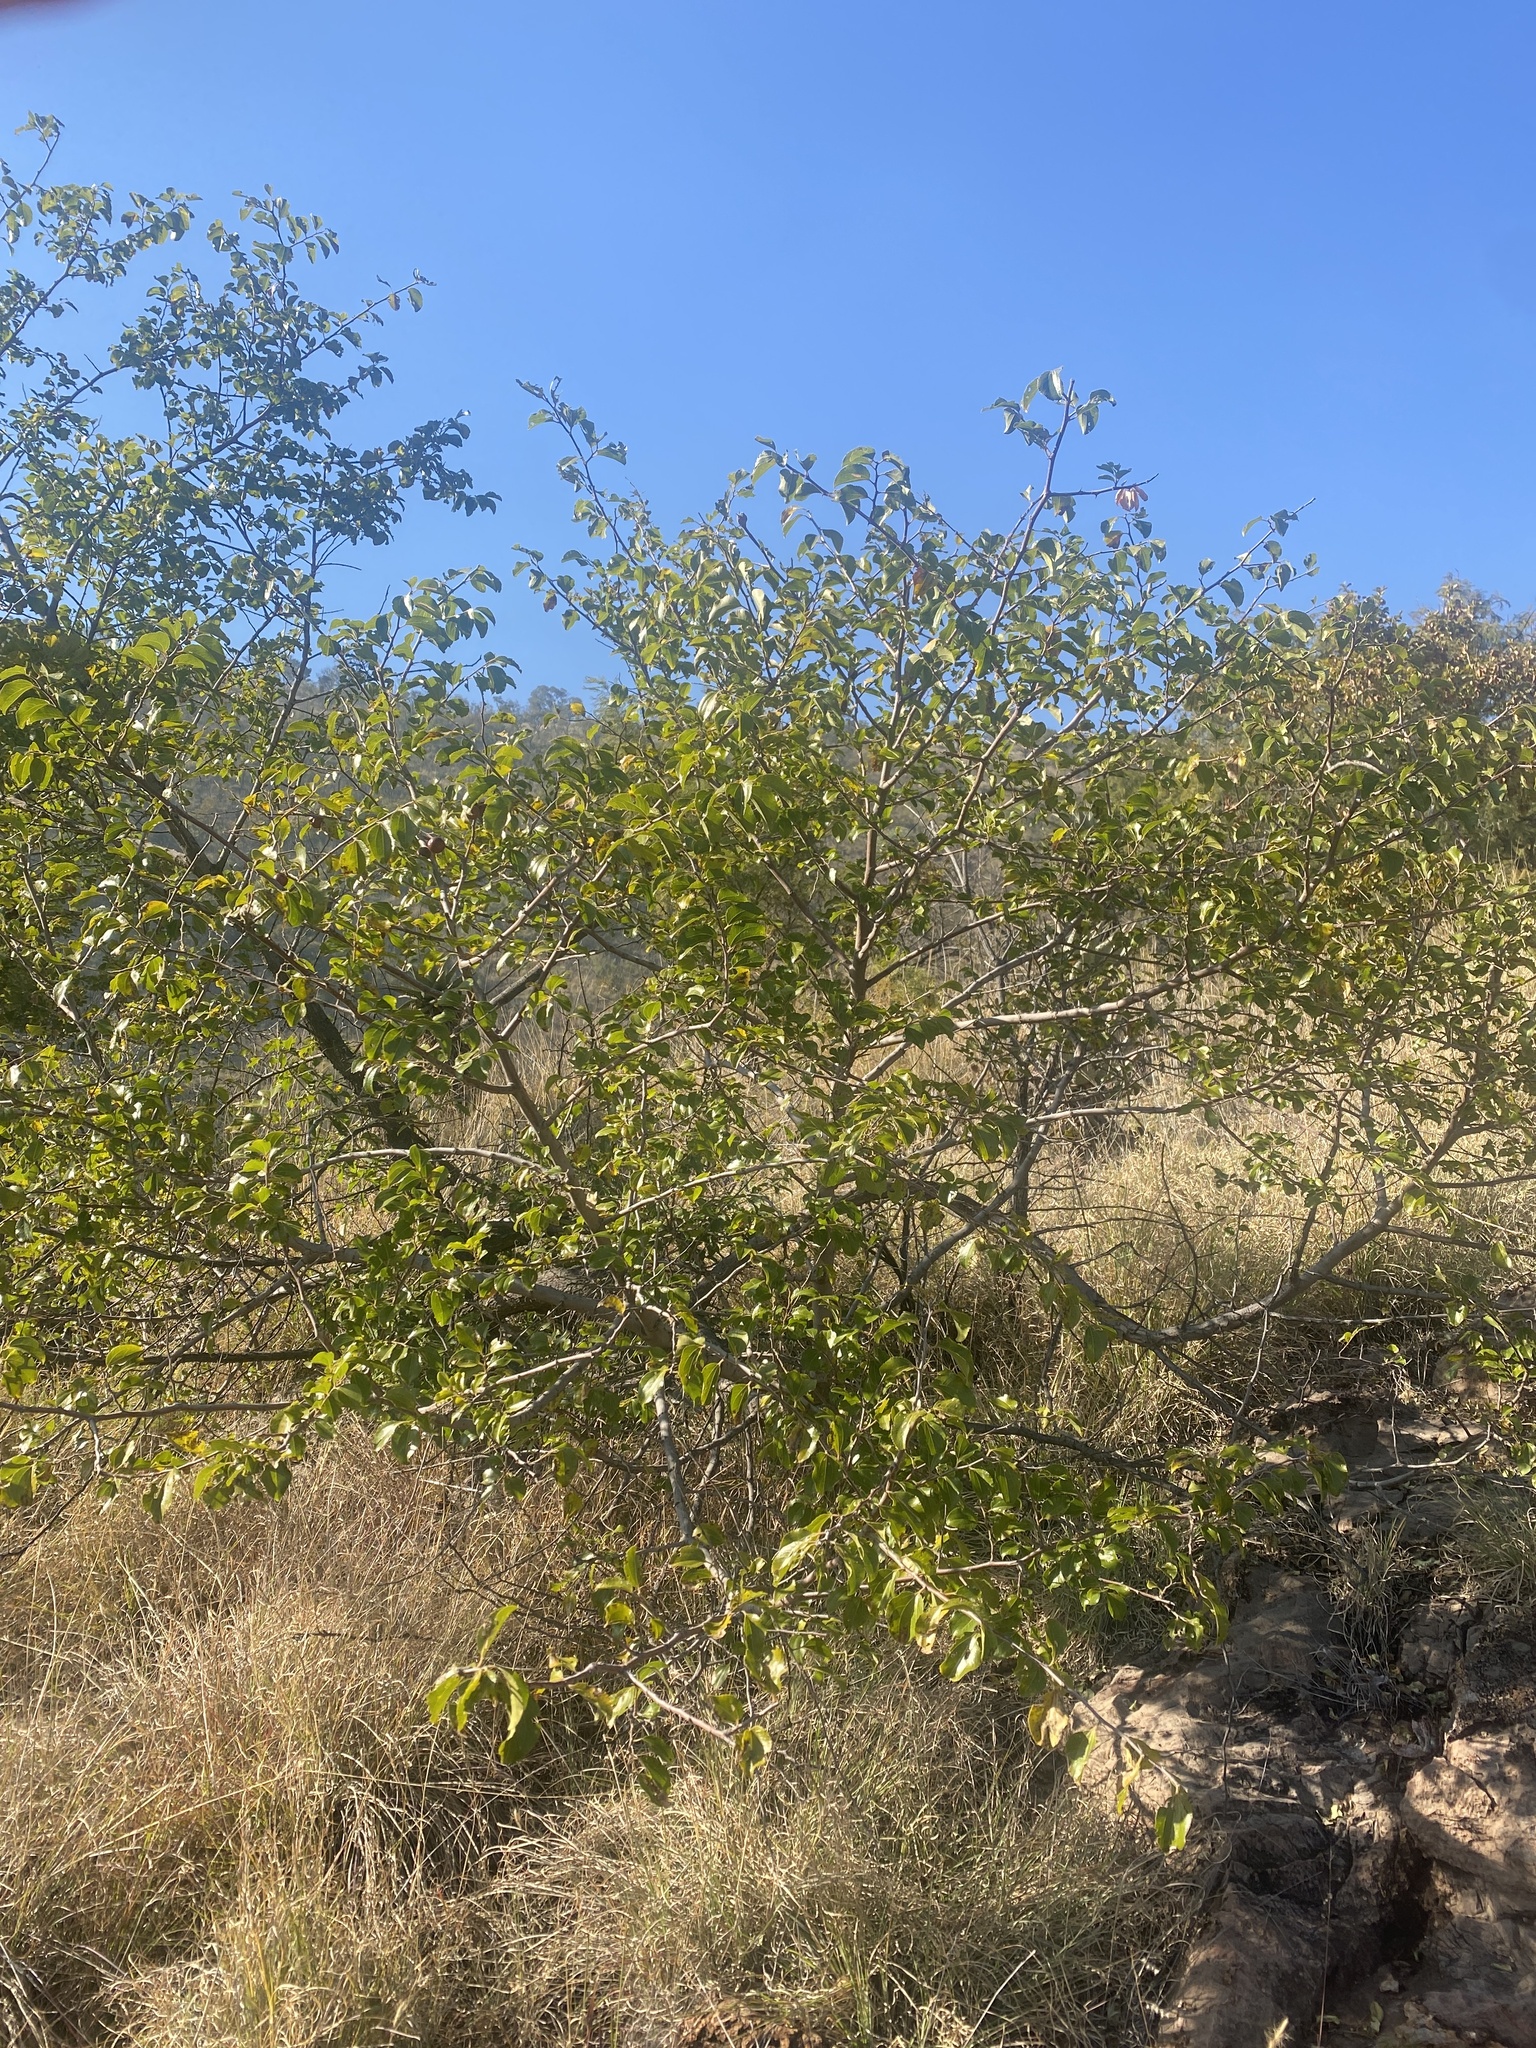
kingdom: Plantae
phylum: Tracheophyta
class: Magnoliopsida
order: Rosales
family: Rhamnaceae
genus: Ziziphus
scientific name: Ziziphus mucronata
